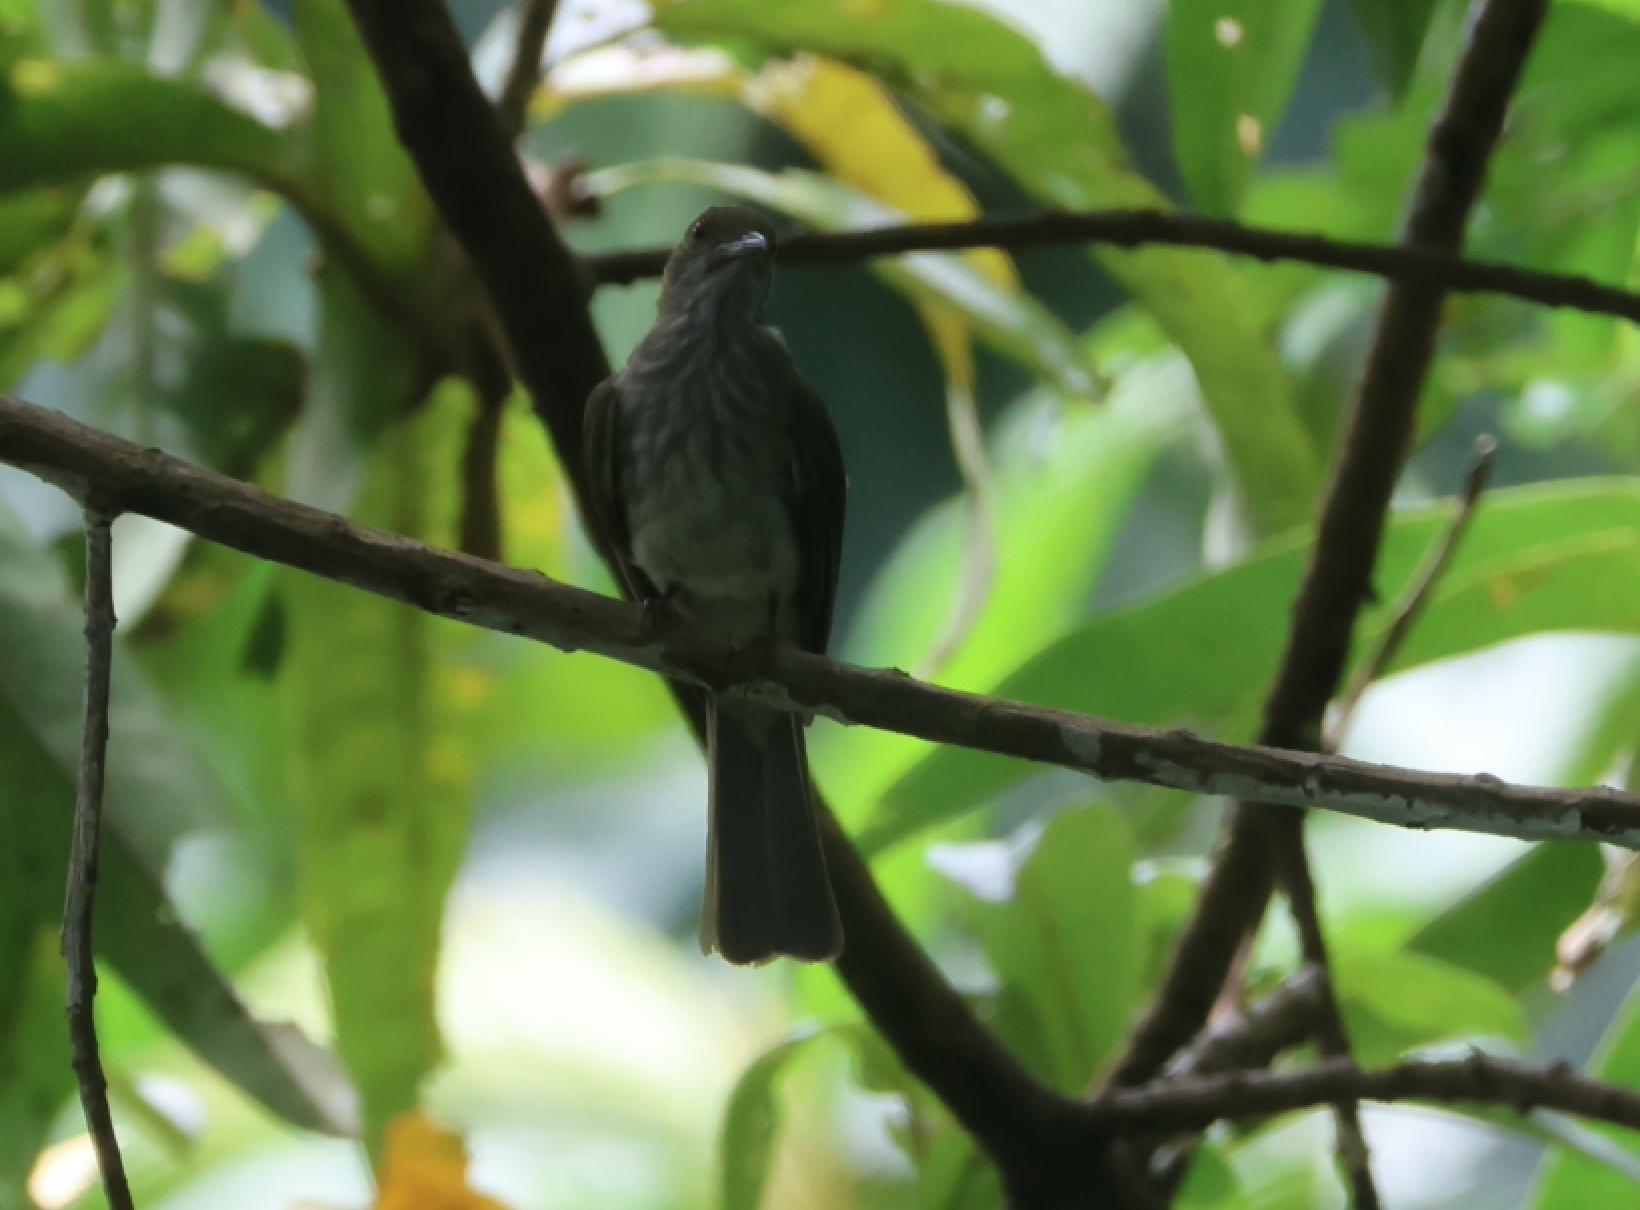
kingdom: Animalia
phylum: Chordata
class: Aves
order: Passeriformes
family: Pycnonotidae
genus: Ixos
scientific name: Ixos malaccensis
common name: Streaked bulbul
